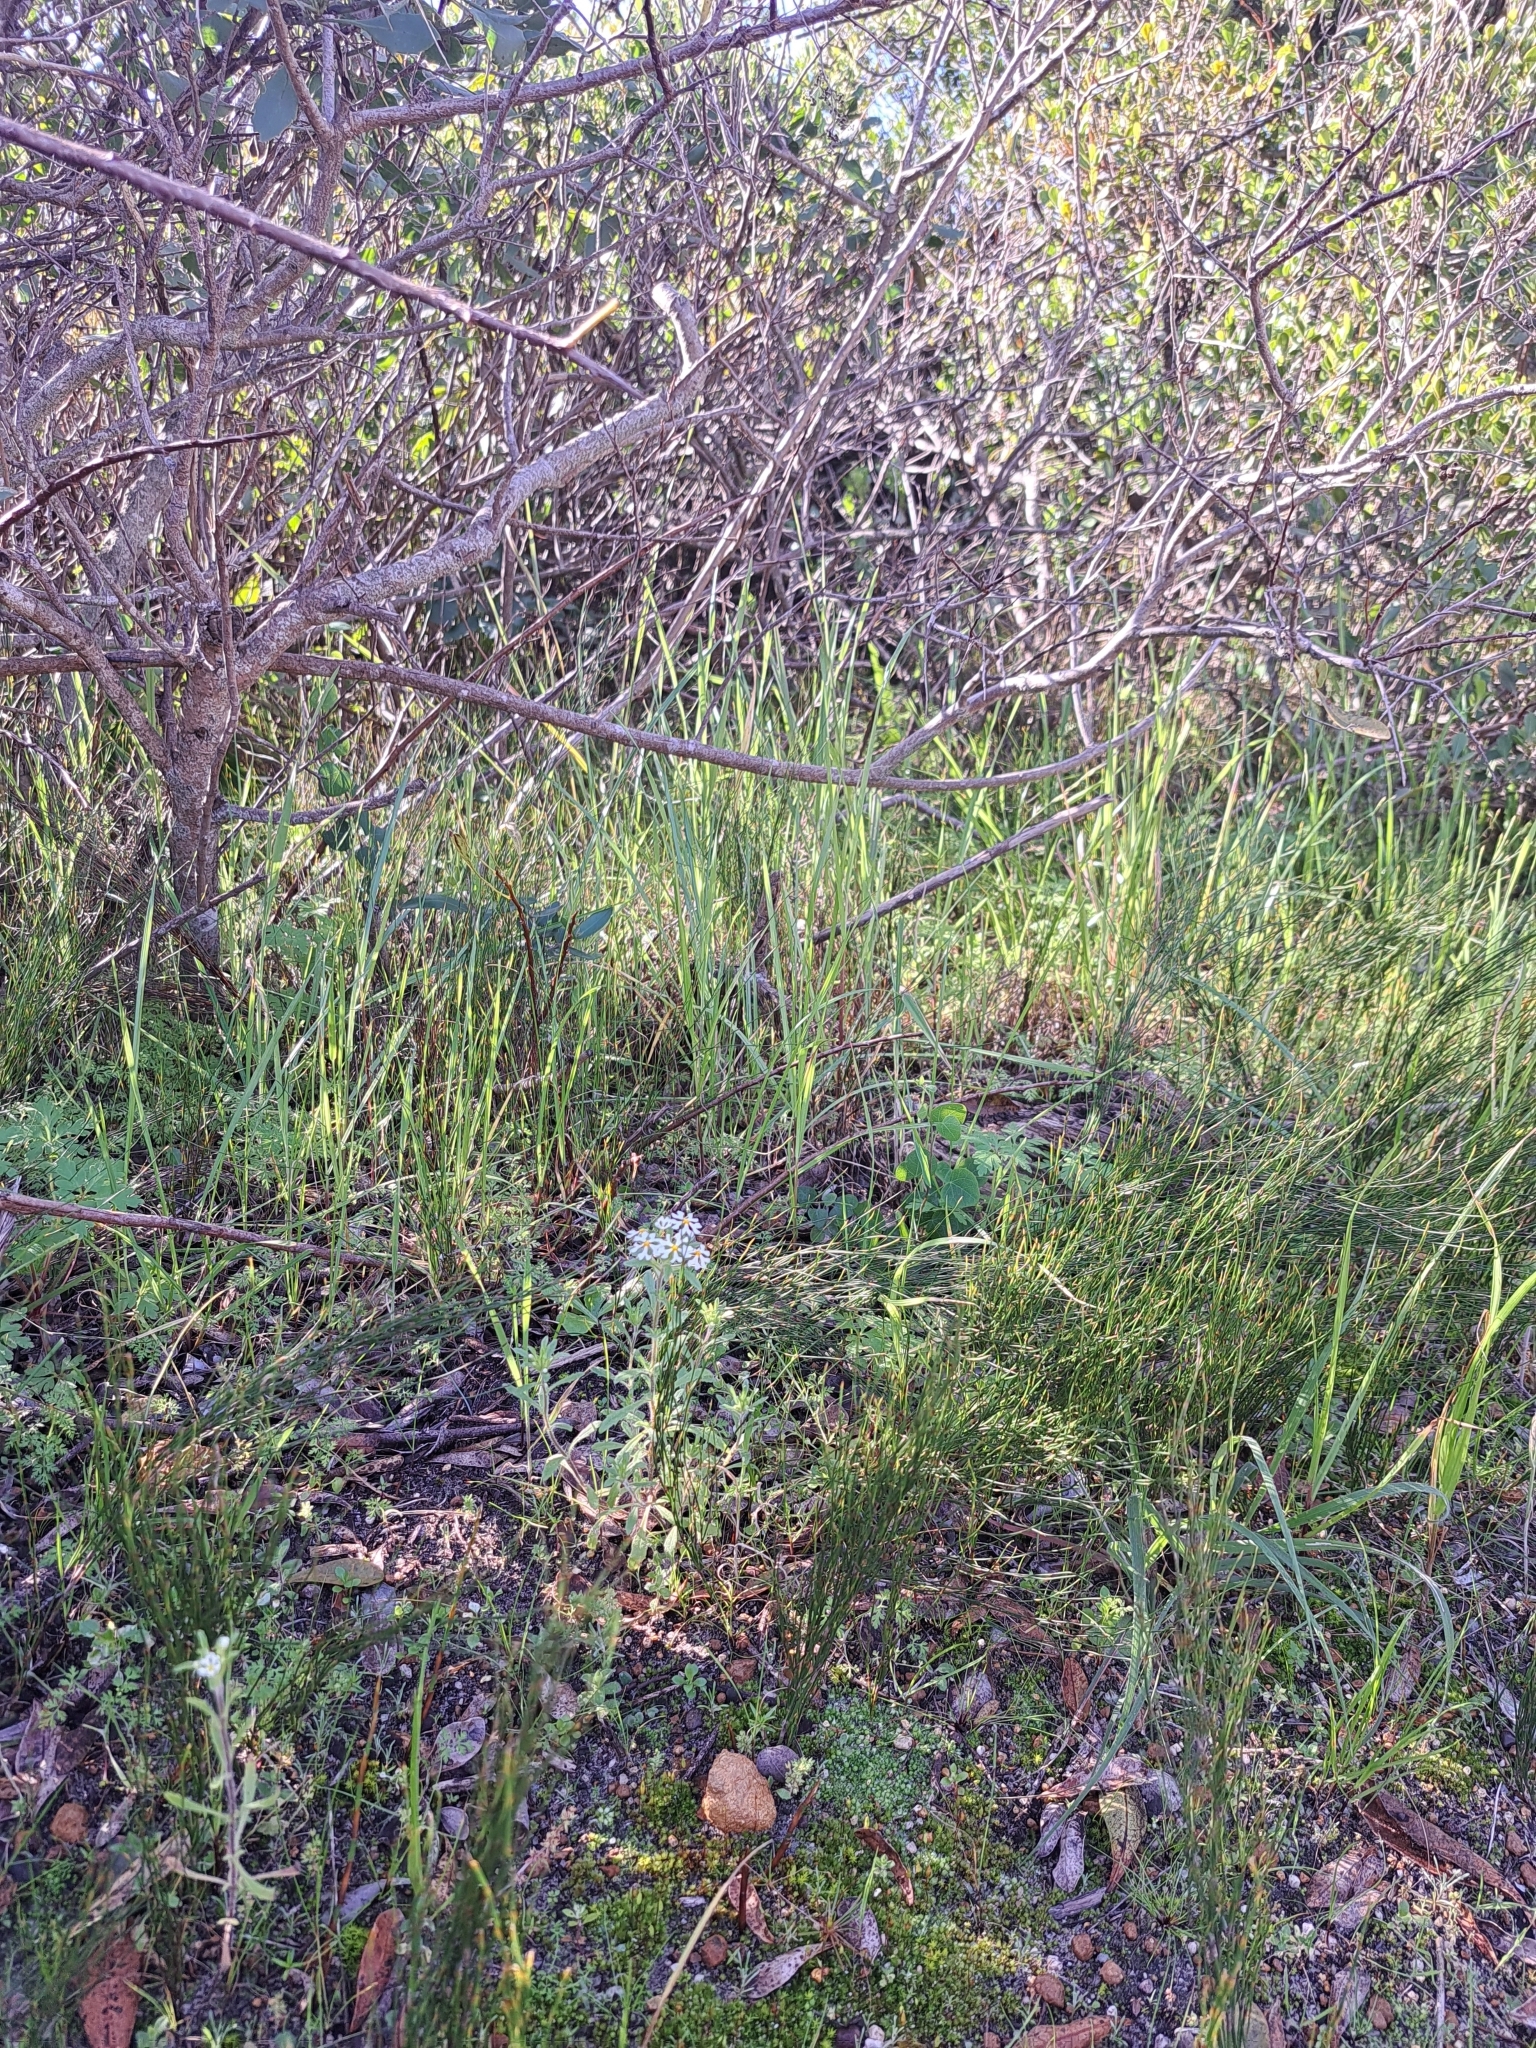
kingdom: Plantae
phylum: Tracheophyta
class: Magnoliopsida
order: Lamiales
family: Scrophulariaceae
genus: Zaluzianskya
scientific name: Zaluzianskya villosa
